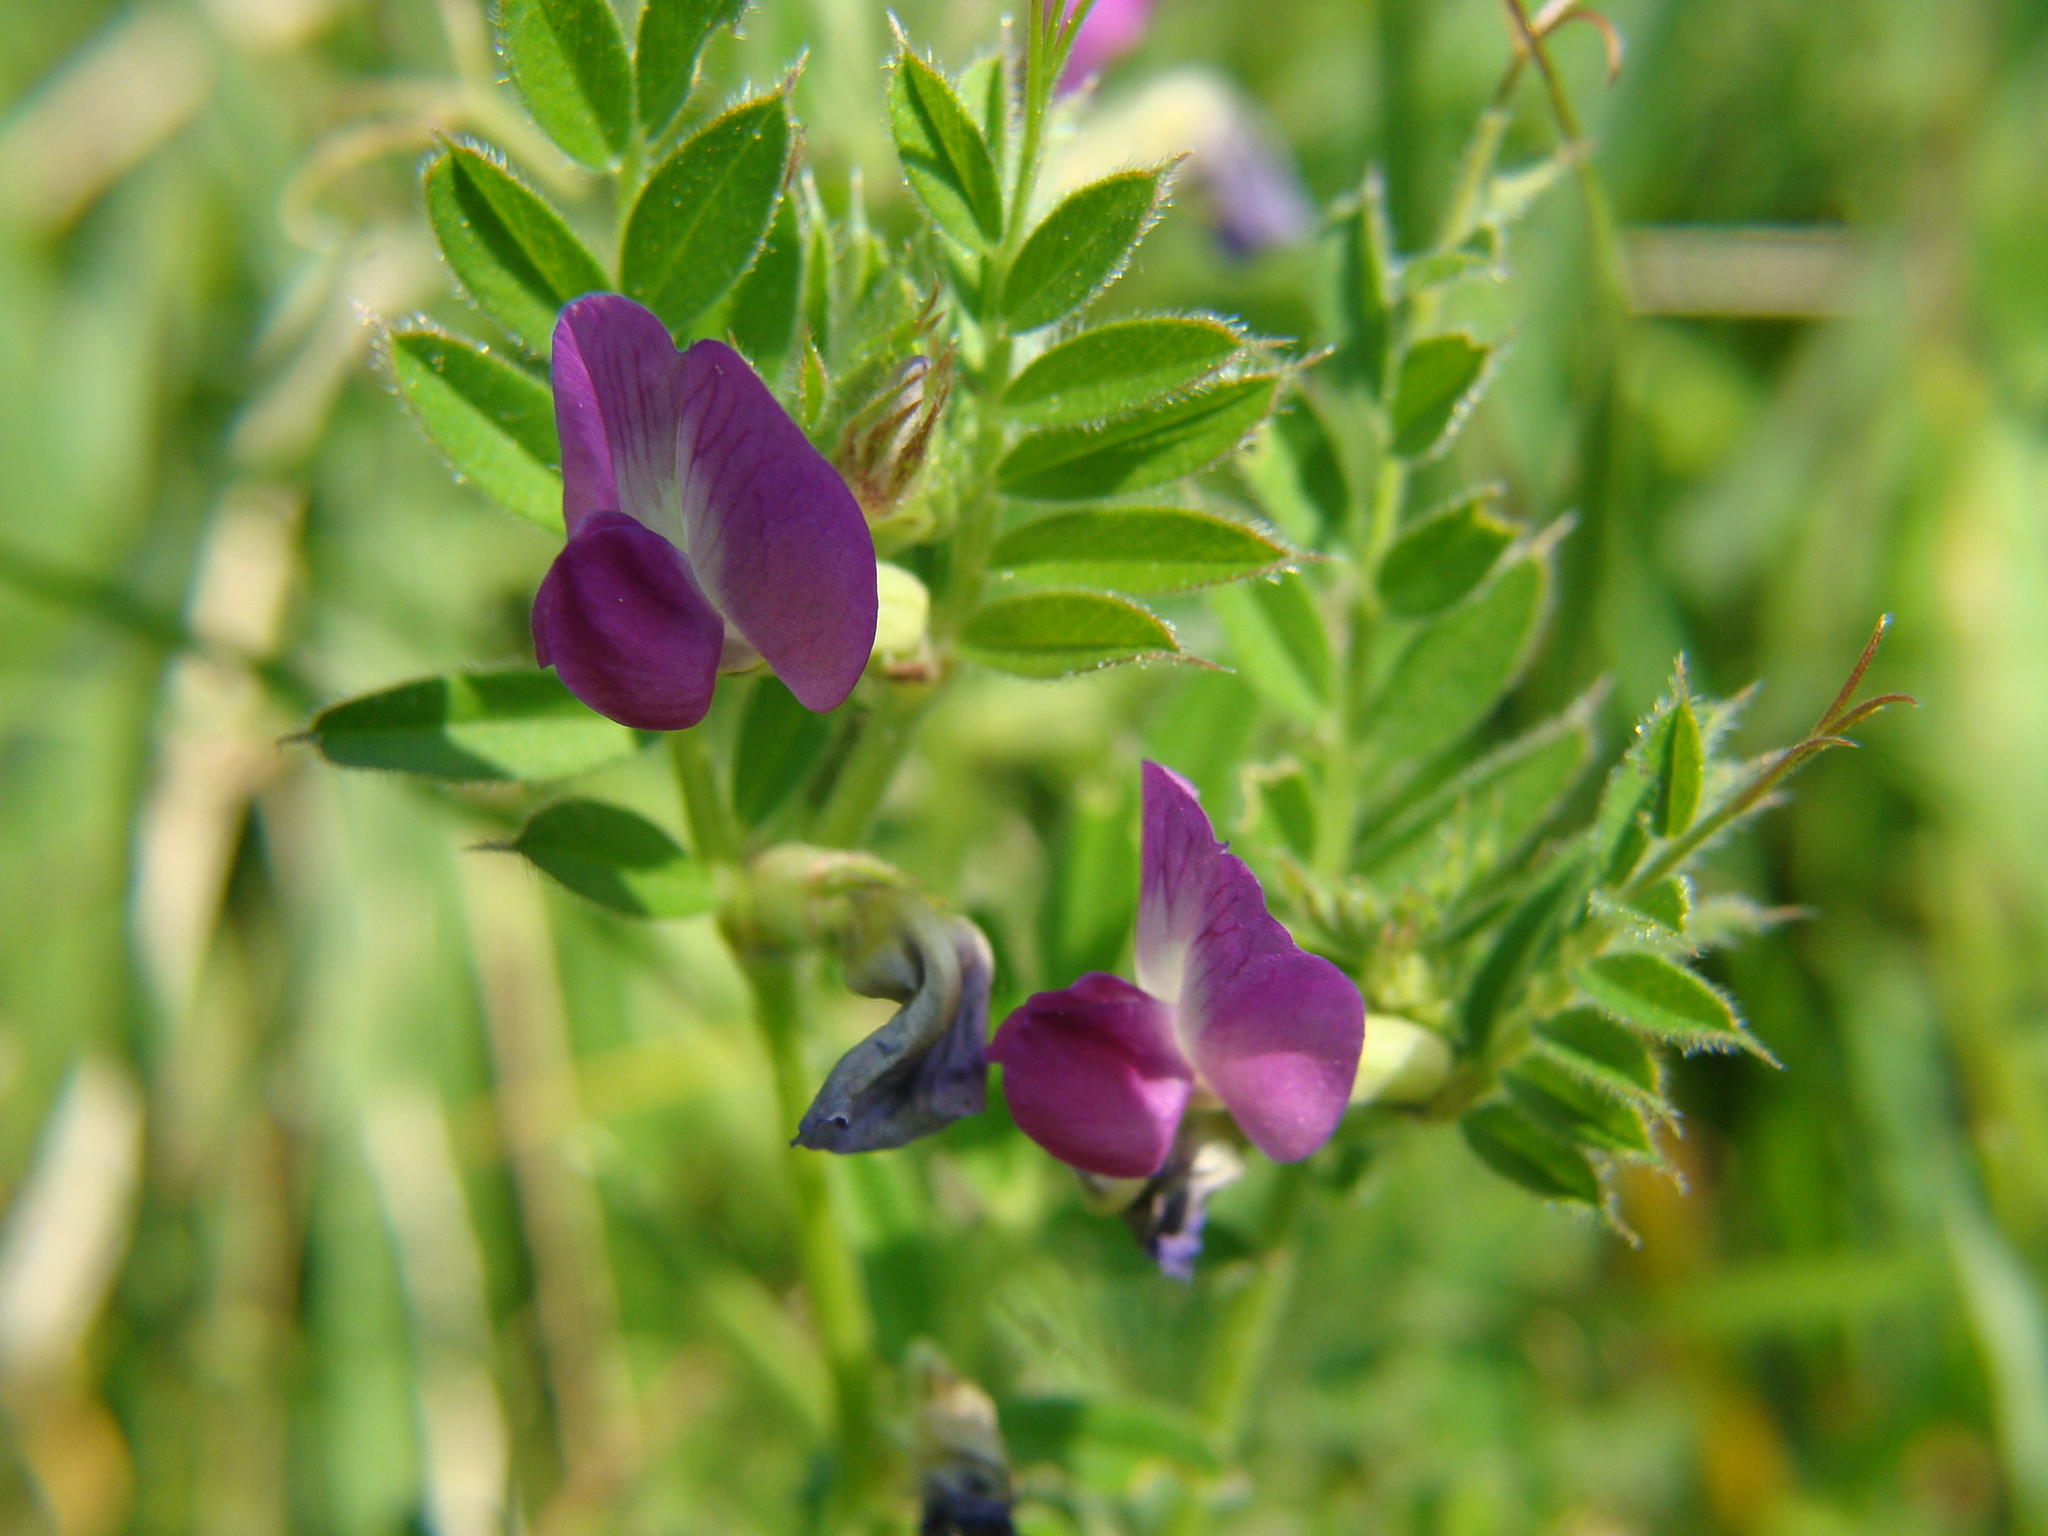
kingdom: Plantae
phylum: Tracheophyta
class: Magnoliopsida
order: Fabales
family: Fabaceae
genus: Vicia
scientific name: Vicia sativa
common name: Garden vetch
